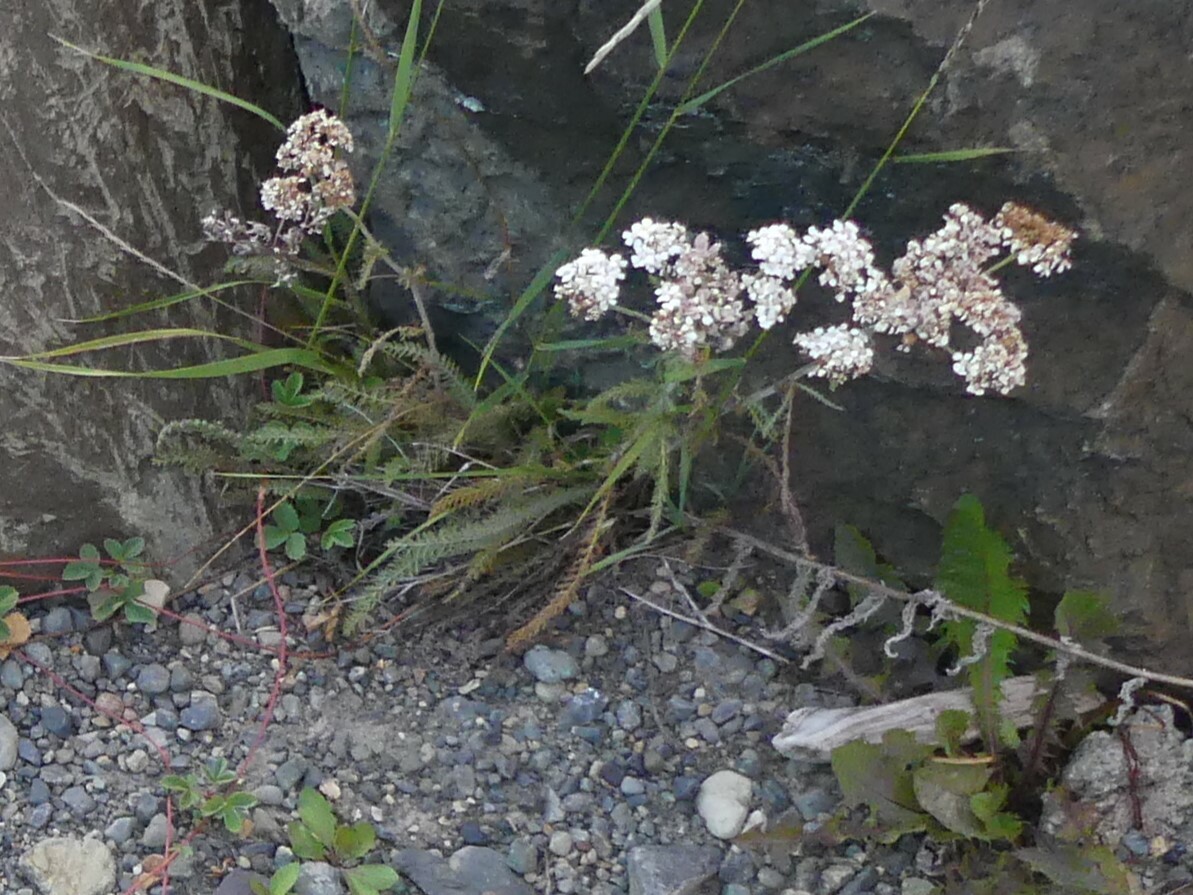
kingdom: Plantae
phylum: Tracheophyta
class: Magnoliopsida
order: Asterales
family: Asteraceae
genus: Achillea
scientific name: Achillea millefolium
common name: Yarrow
